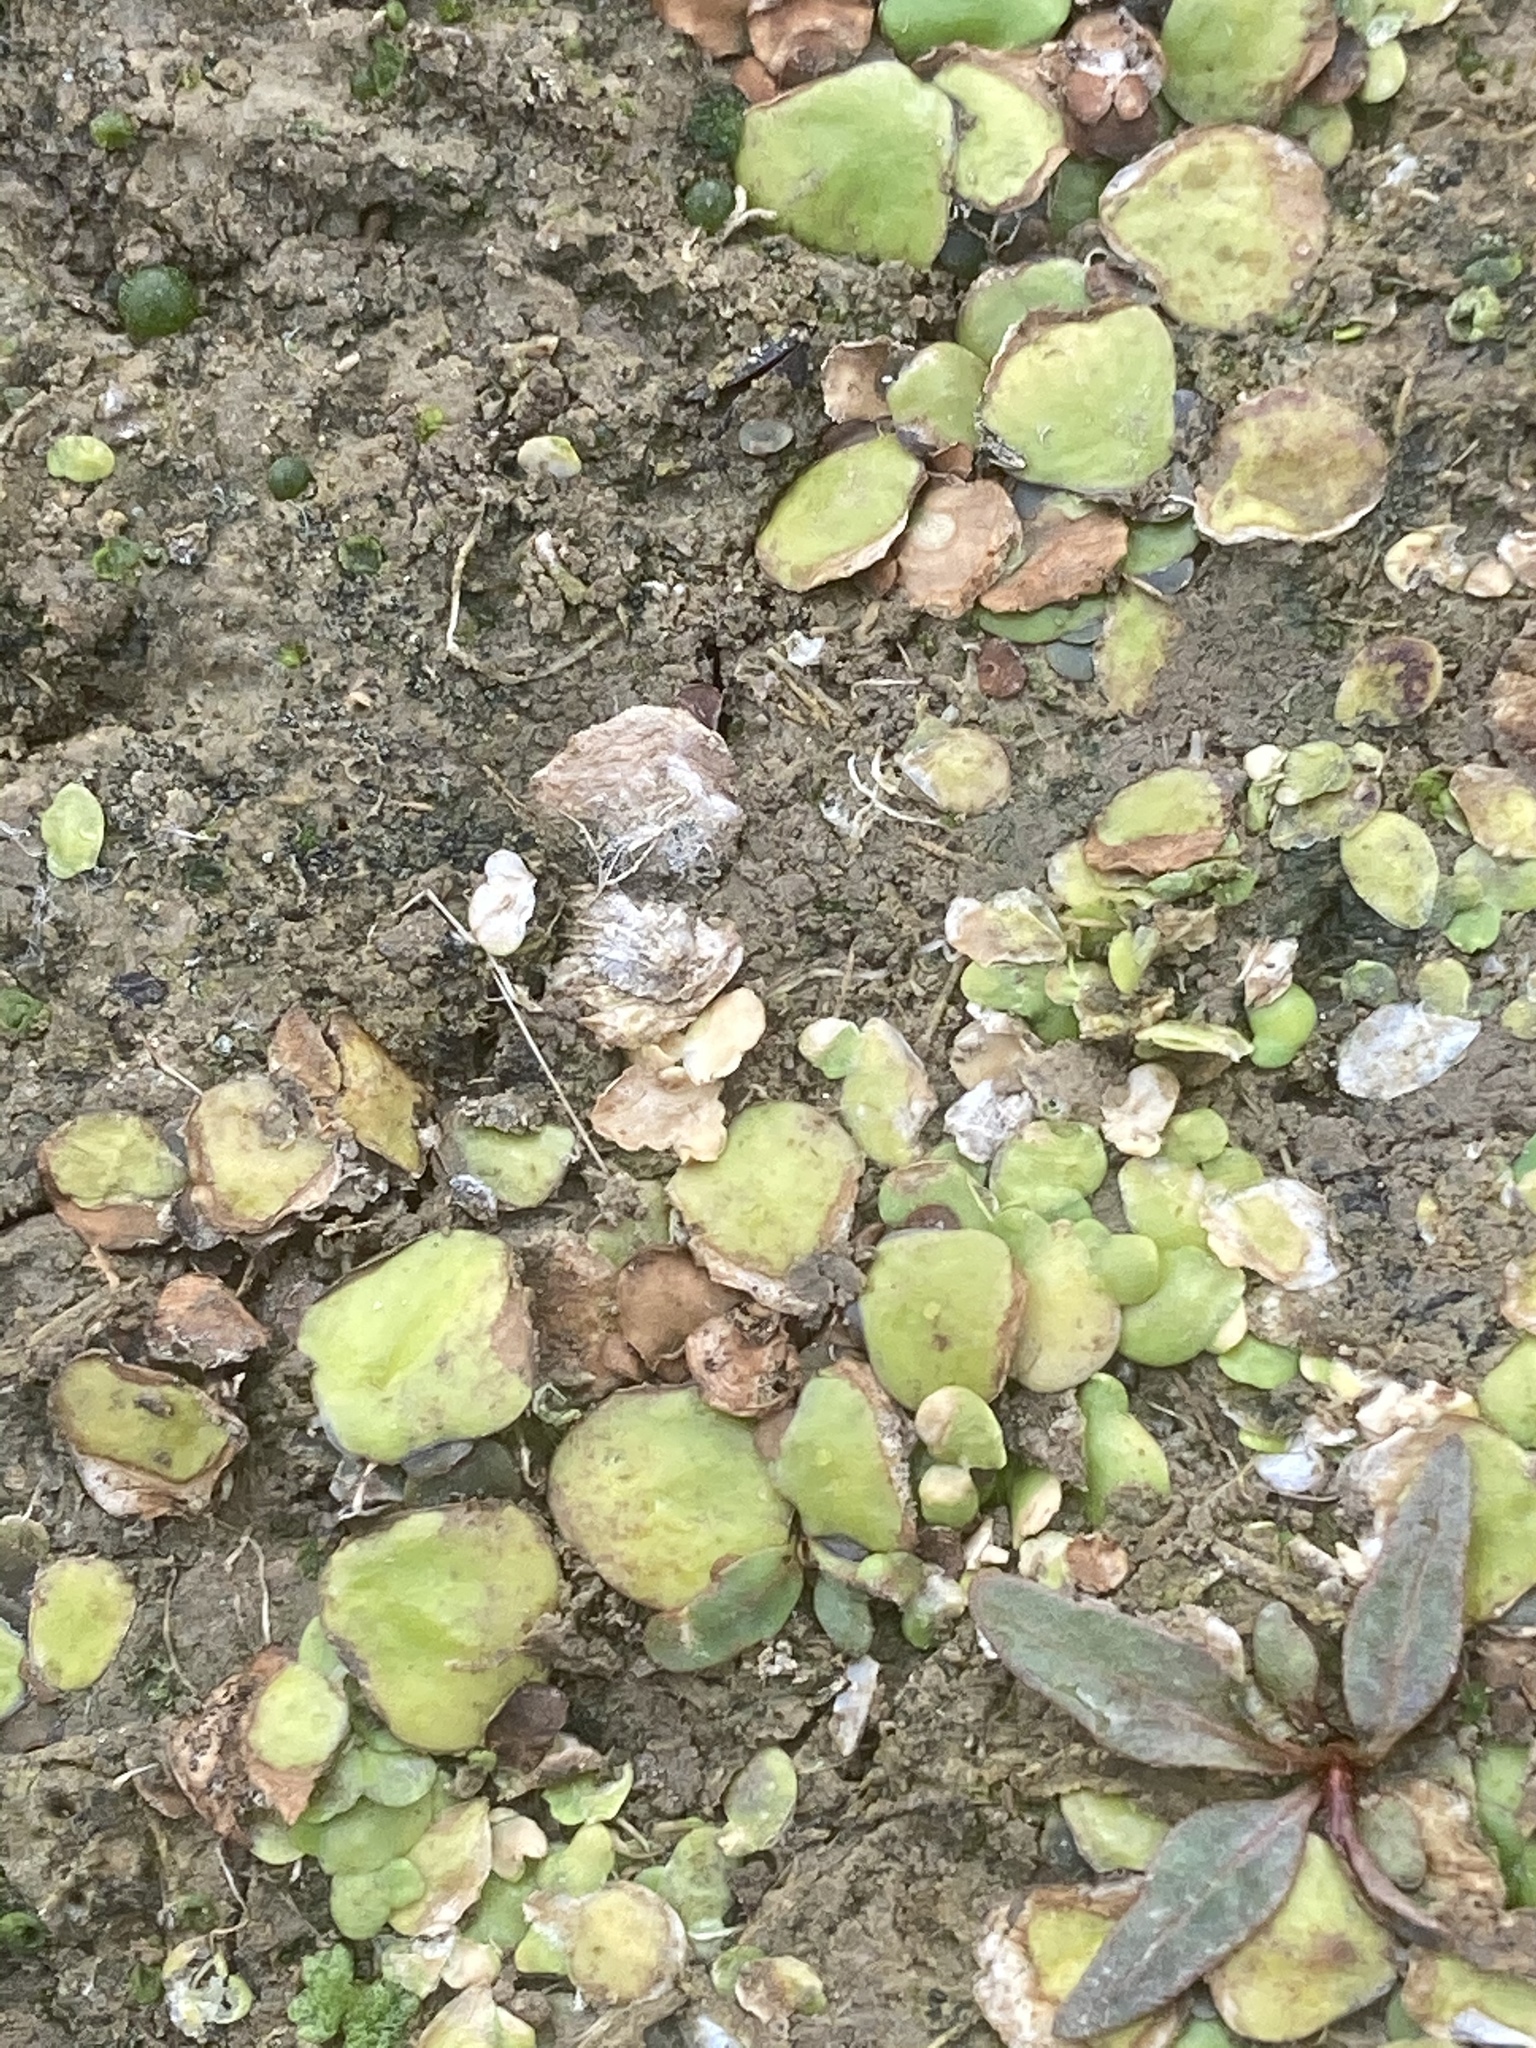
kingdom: Plantae
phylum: Tracheophyta
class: Liliopsida
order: Alismatales
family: Araceae
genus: Spirodela
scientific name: Spirodela polyrhiza
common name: Great duckweed
